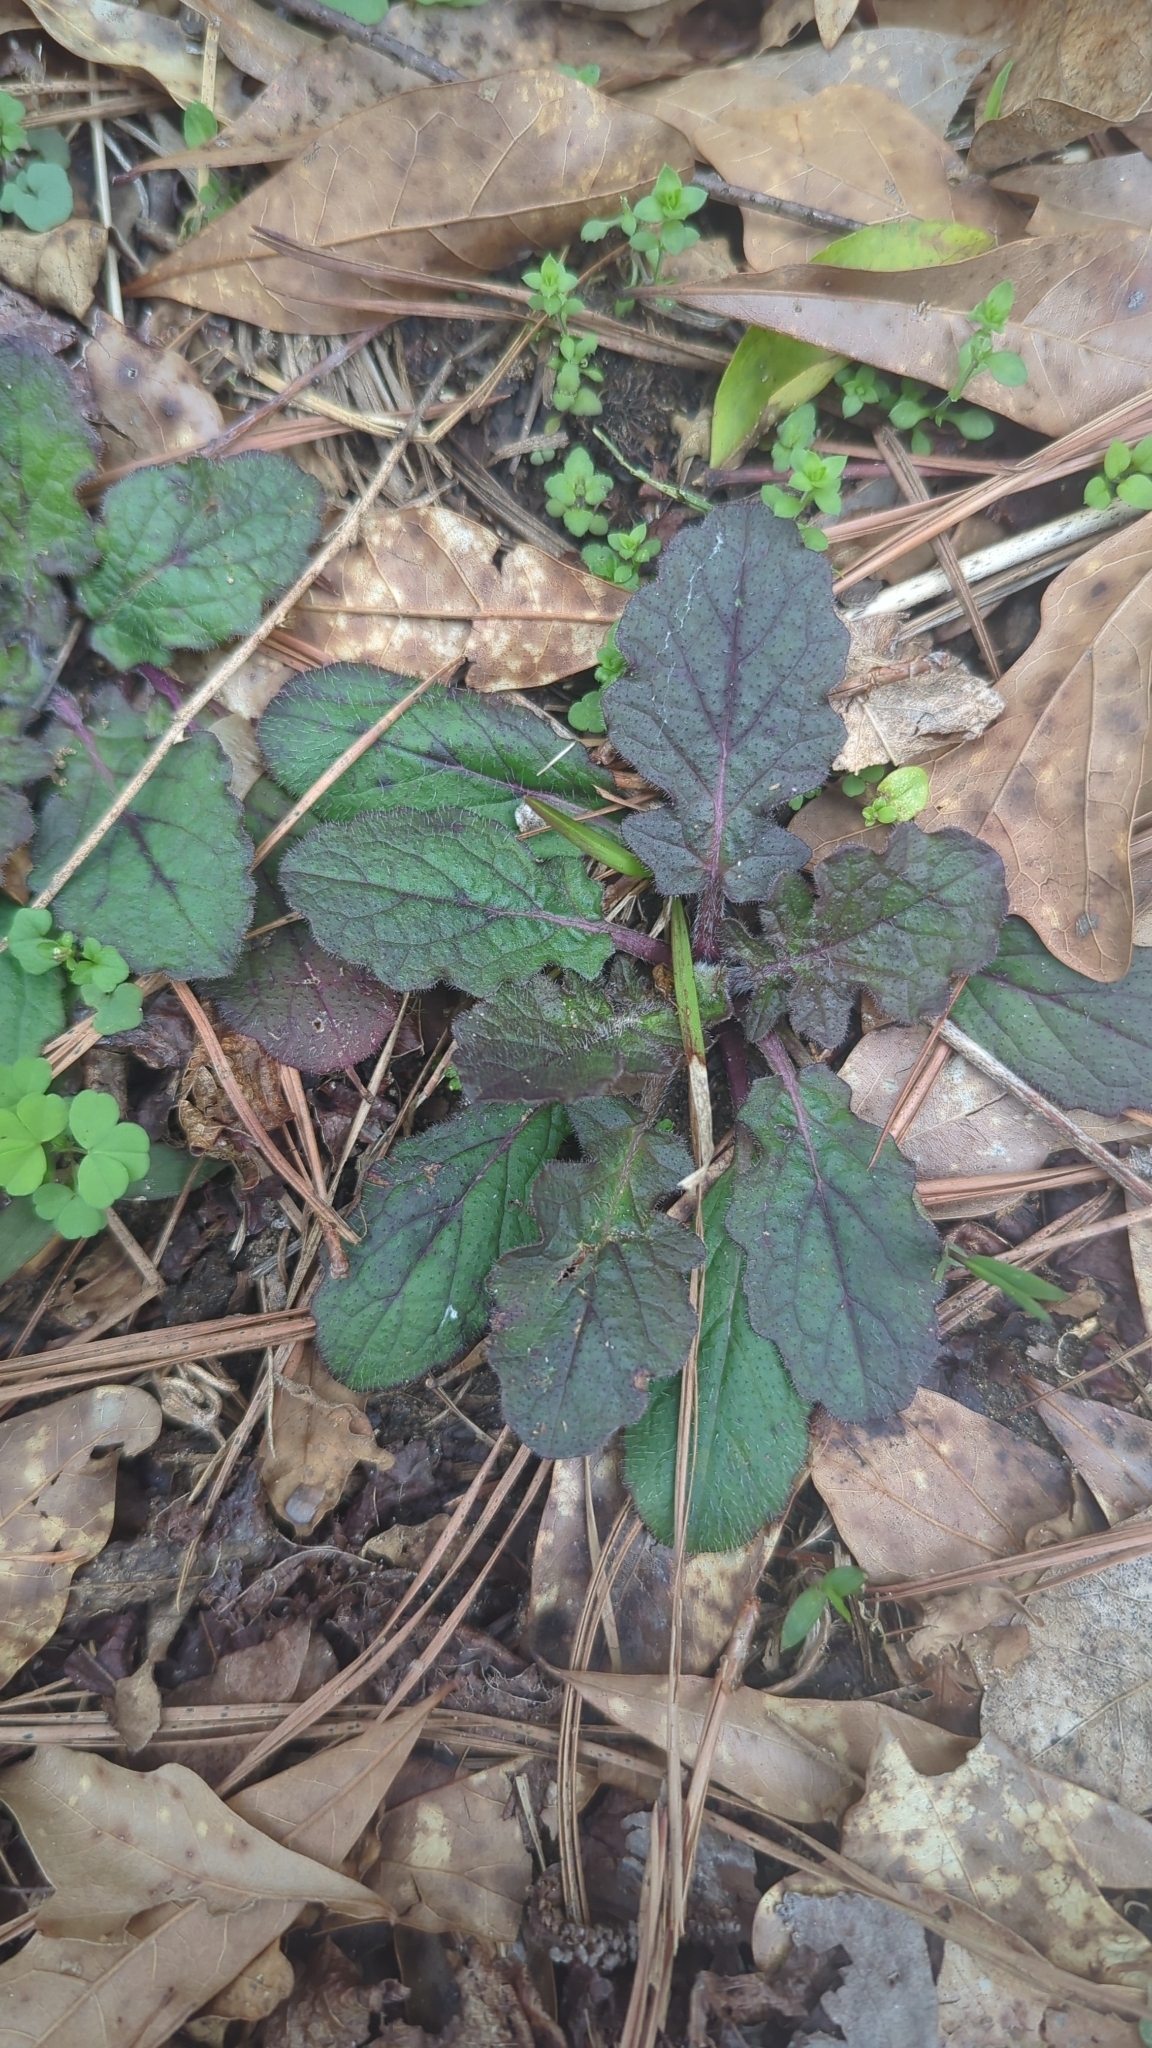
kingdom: Plantae
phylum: Tracheophyta
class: Magnoliopsida
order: Lamiales
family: Lamiaceae
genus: Salvia
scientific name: Salvia lyrata
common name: Cancerweed
